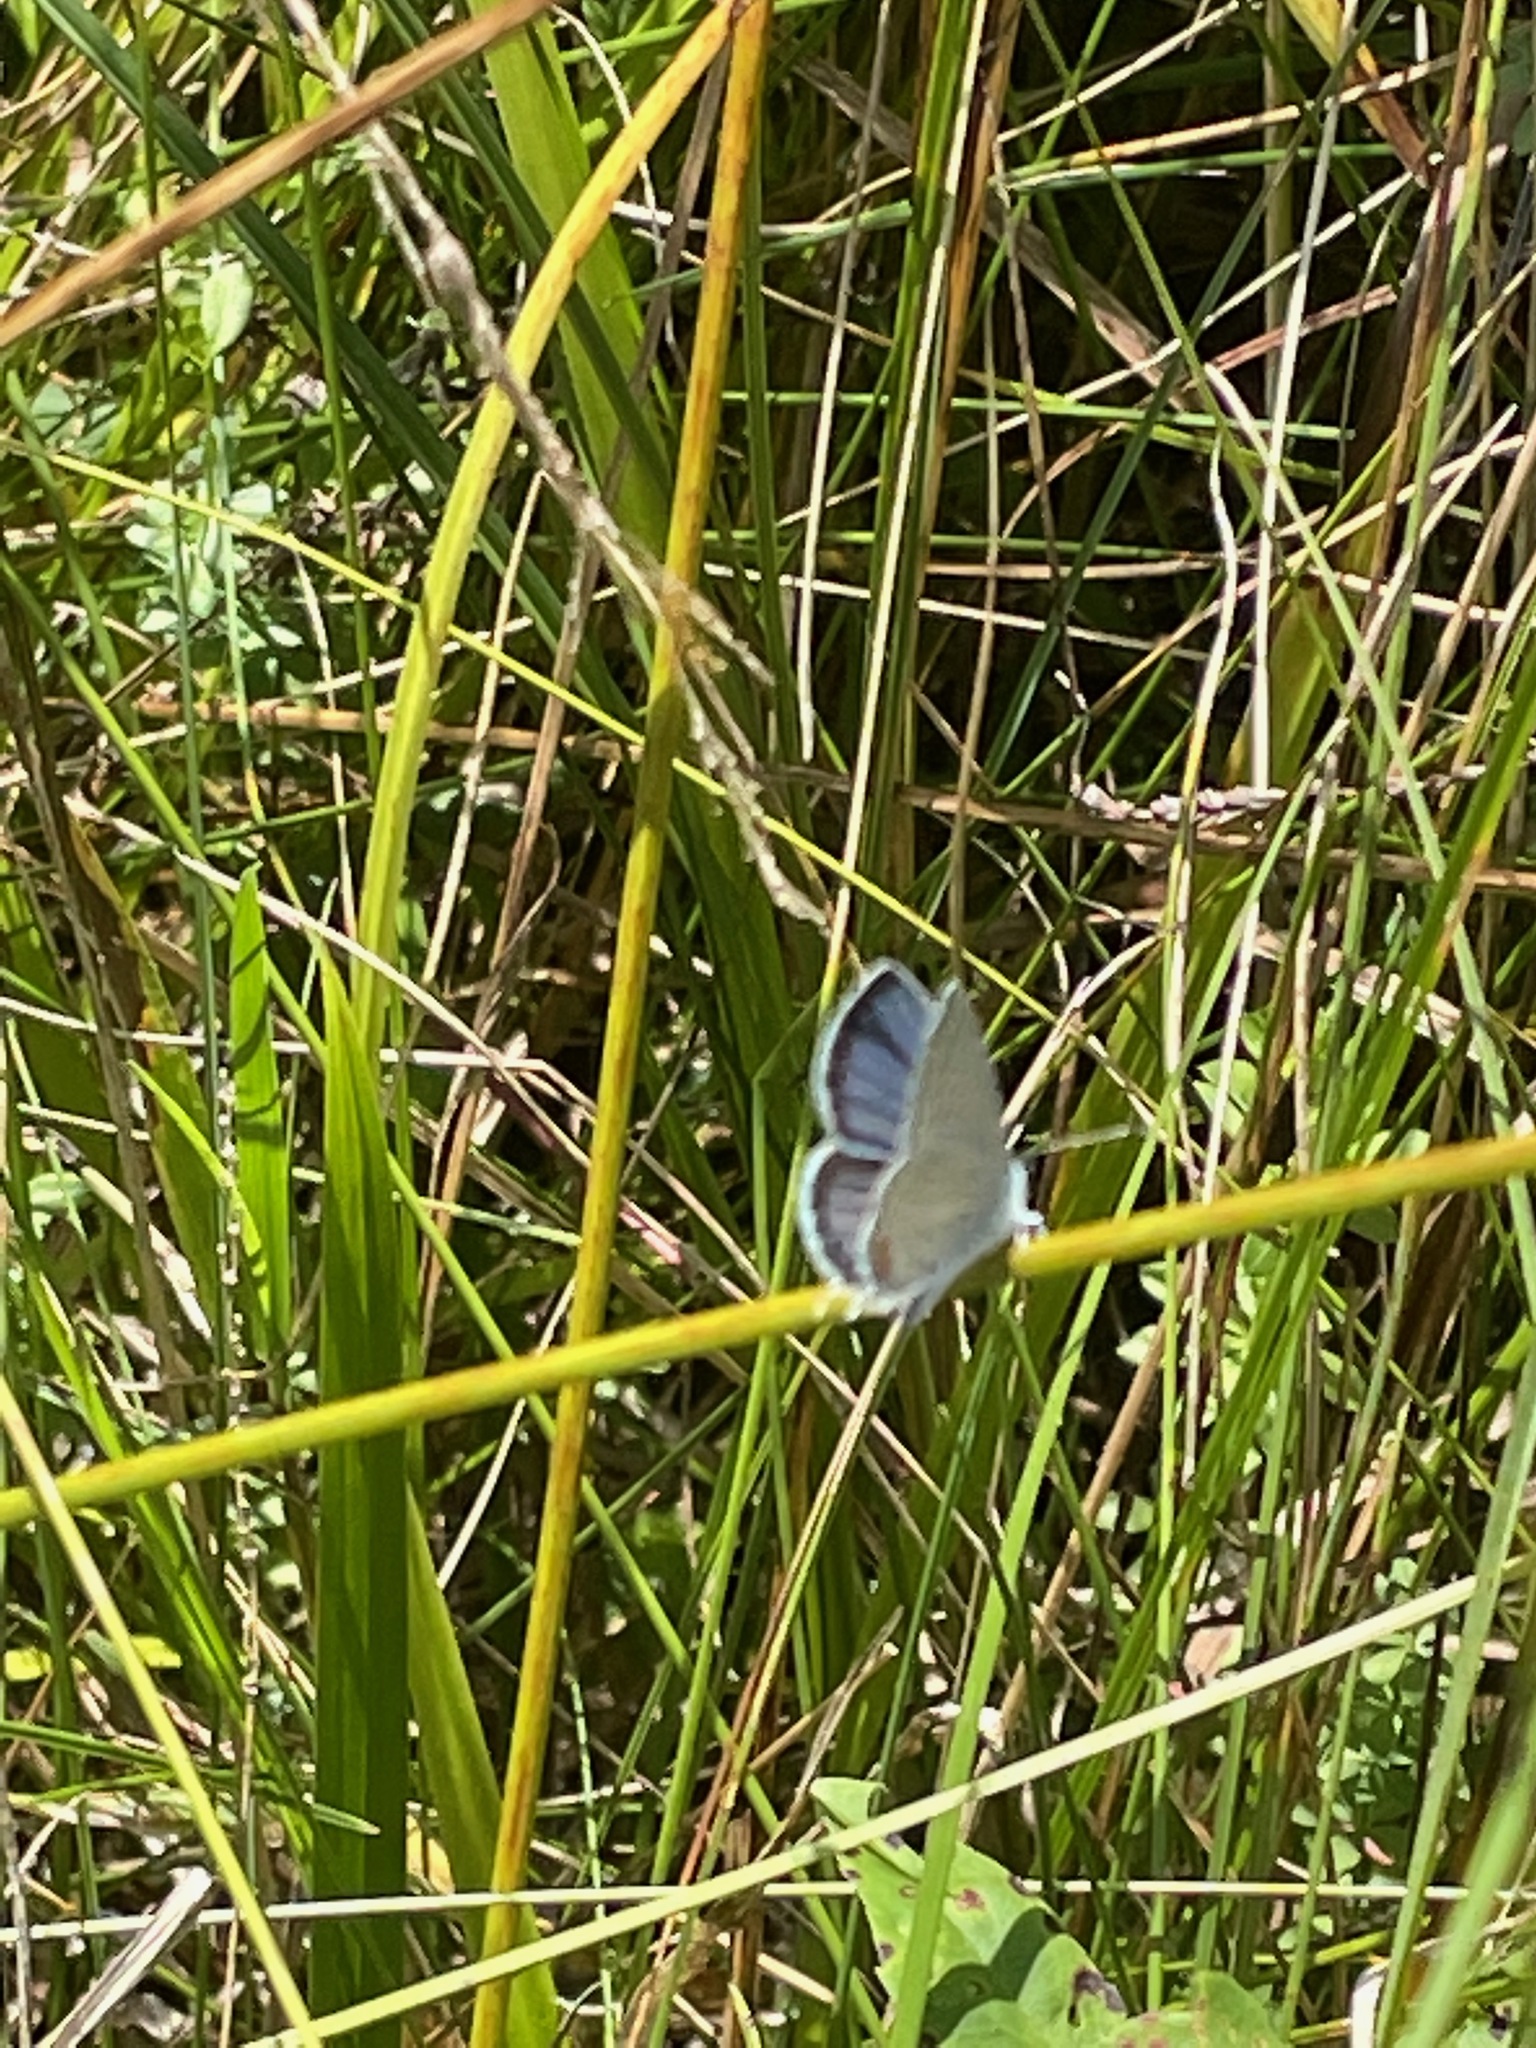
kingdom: Animalia
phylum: Arthropoda
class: Insecta
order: Lepidoptera
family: Lycaenidae
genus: Elkalyce
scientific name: Elkalyce comyntas
